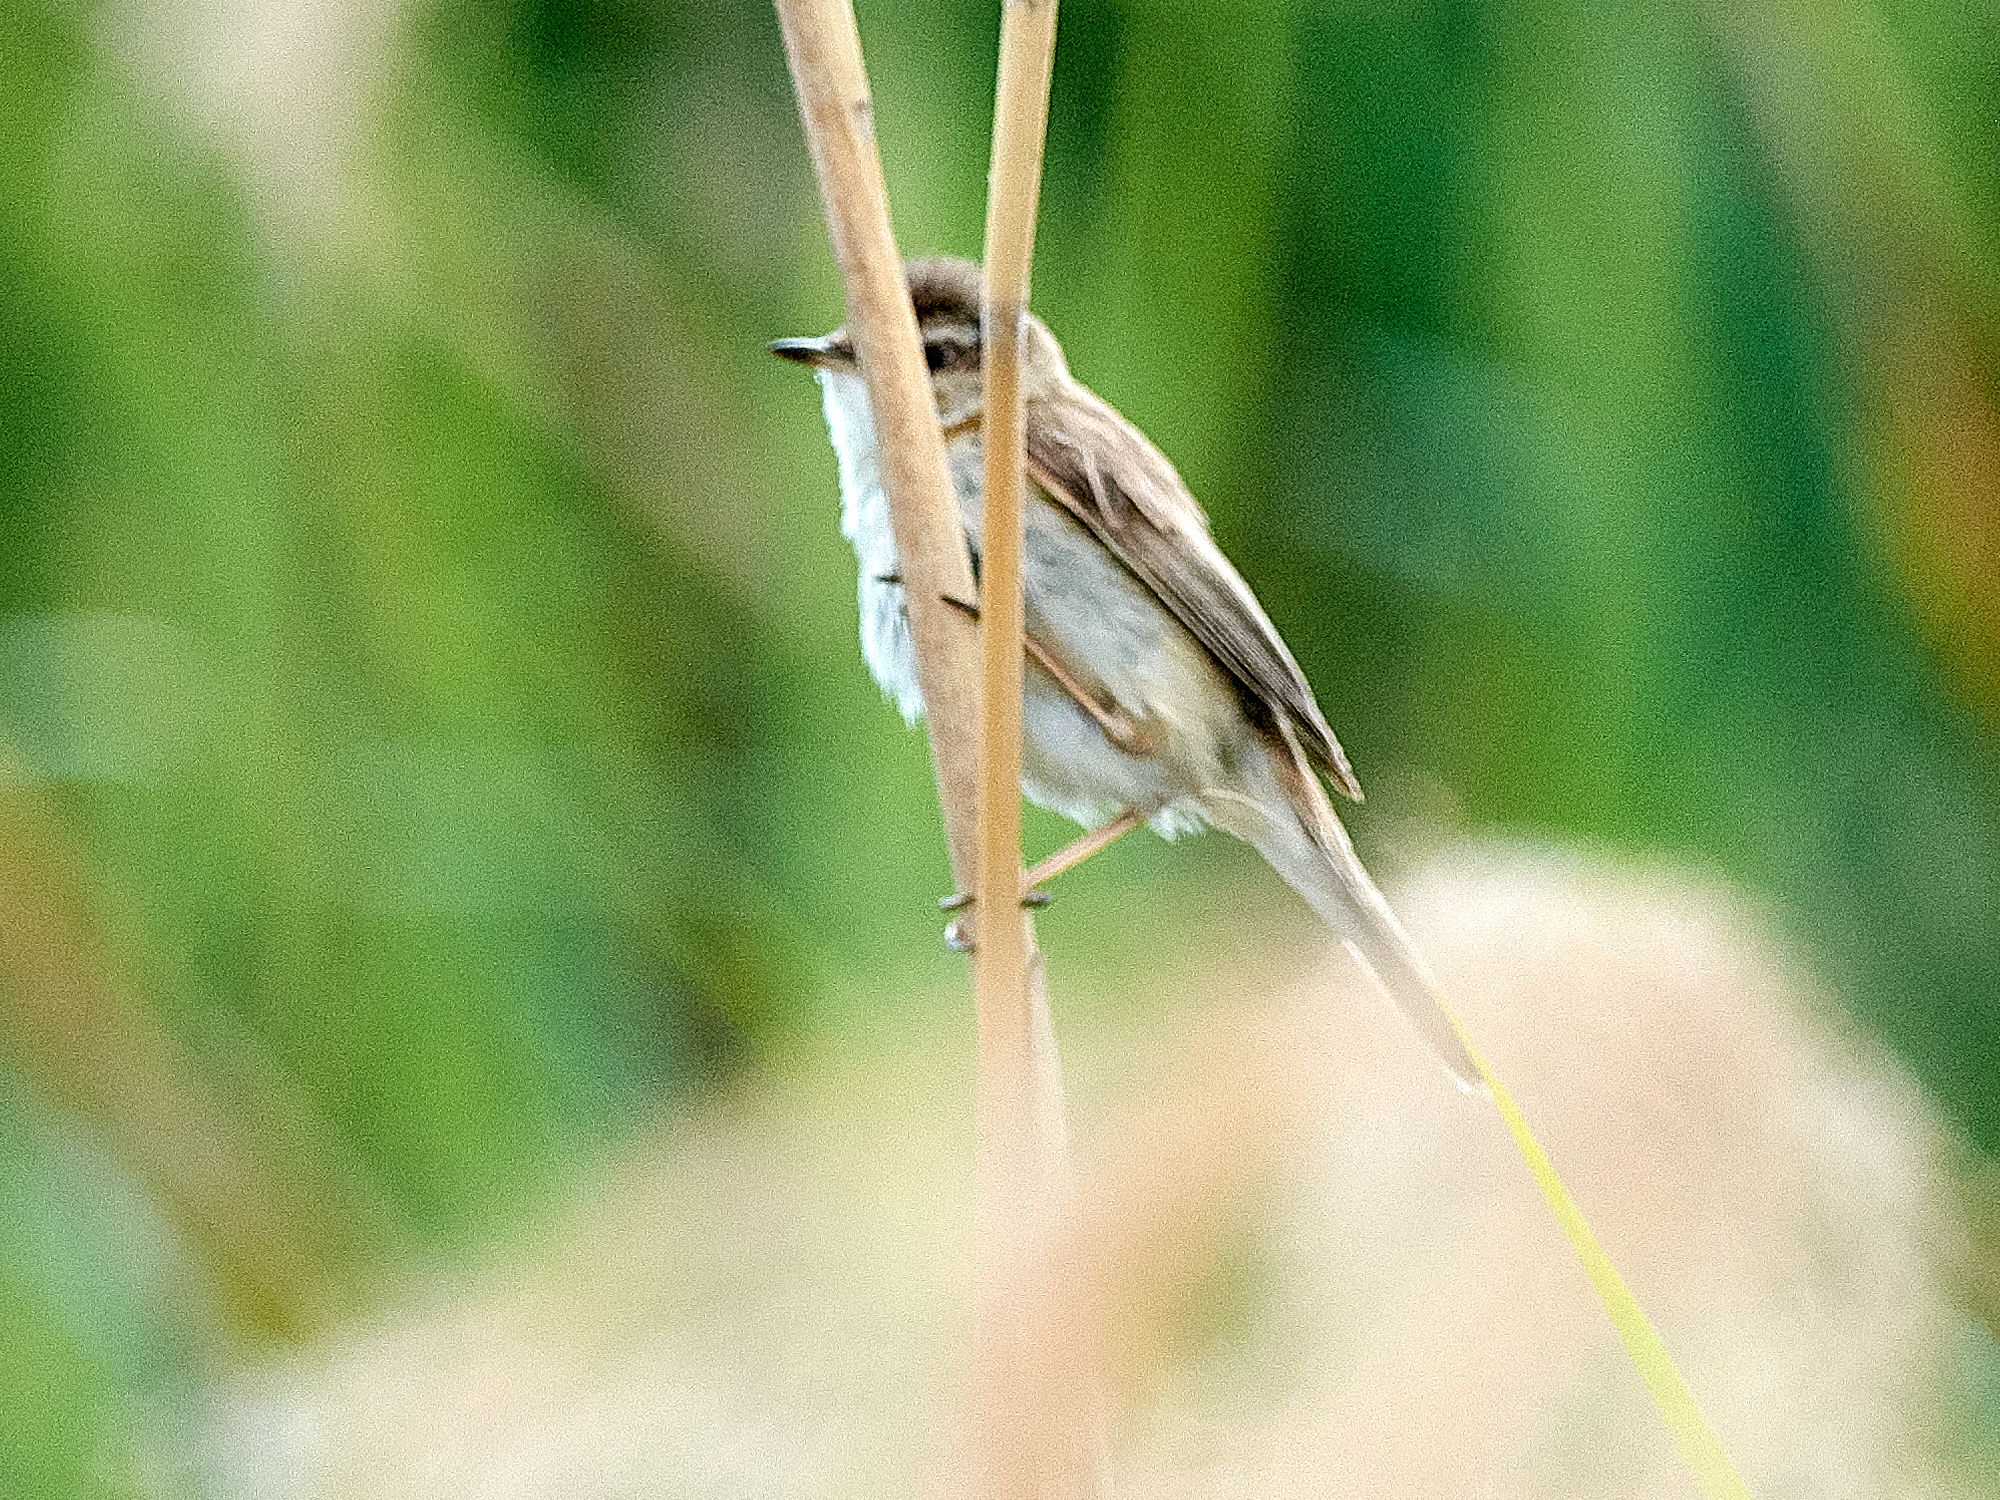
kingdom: Animalia
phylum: Chordata
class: Aves
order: Passeriformes
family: Acrocephalidae
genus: Acrocephalus
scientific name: Acrocephalus agricola
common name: Paddyfield warbler
